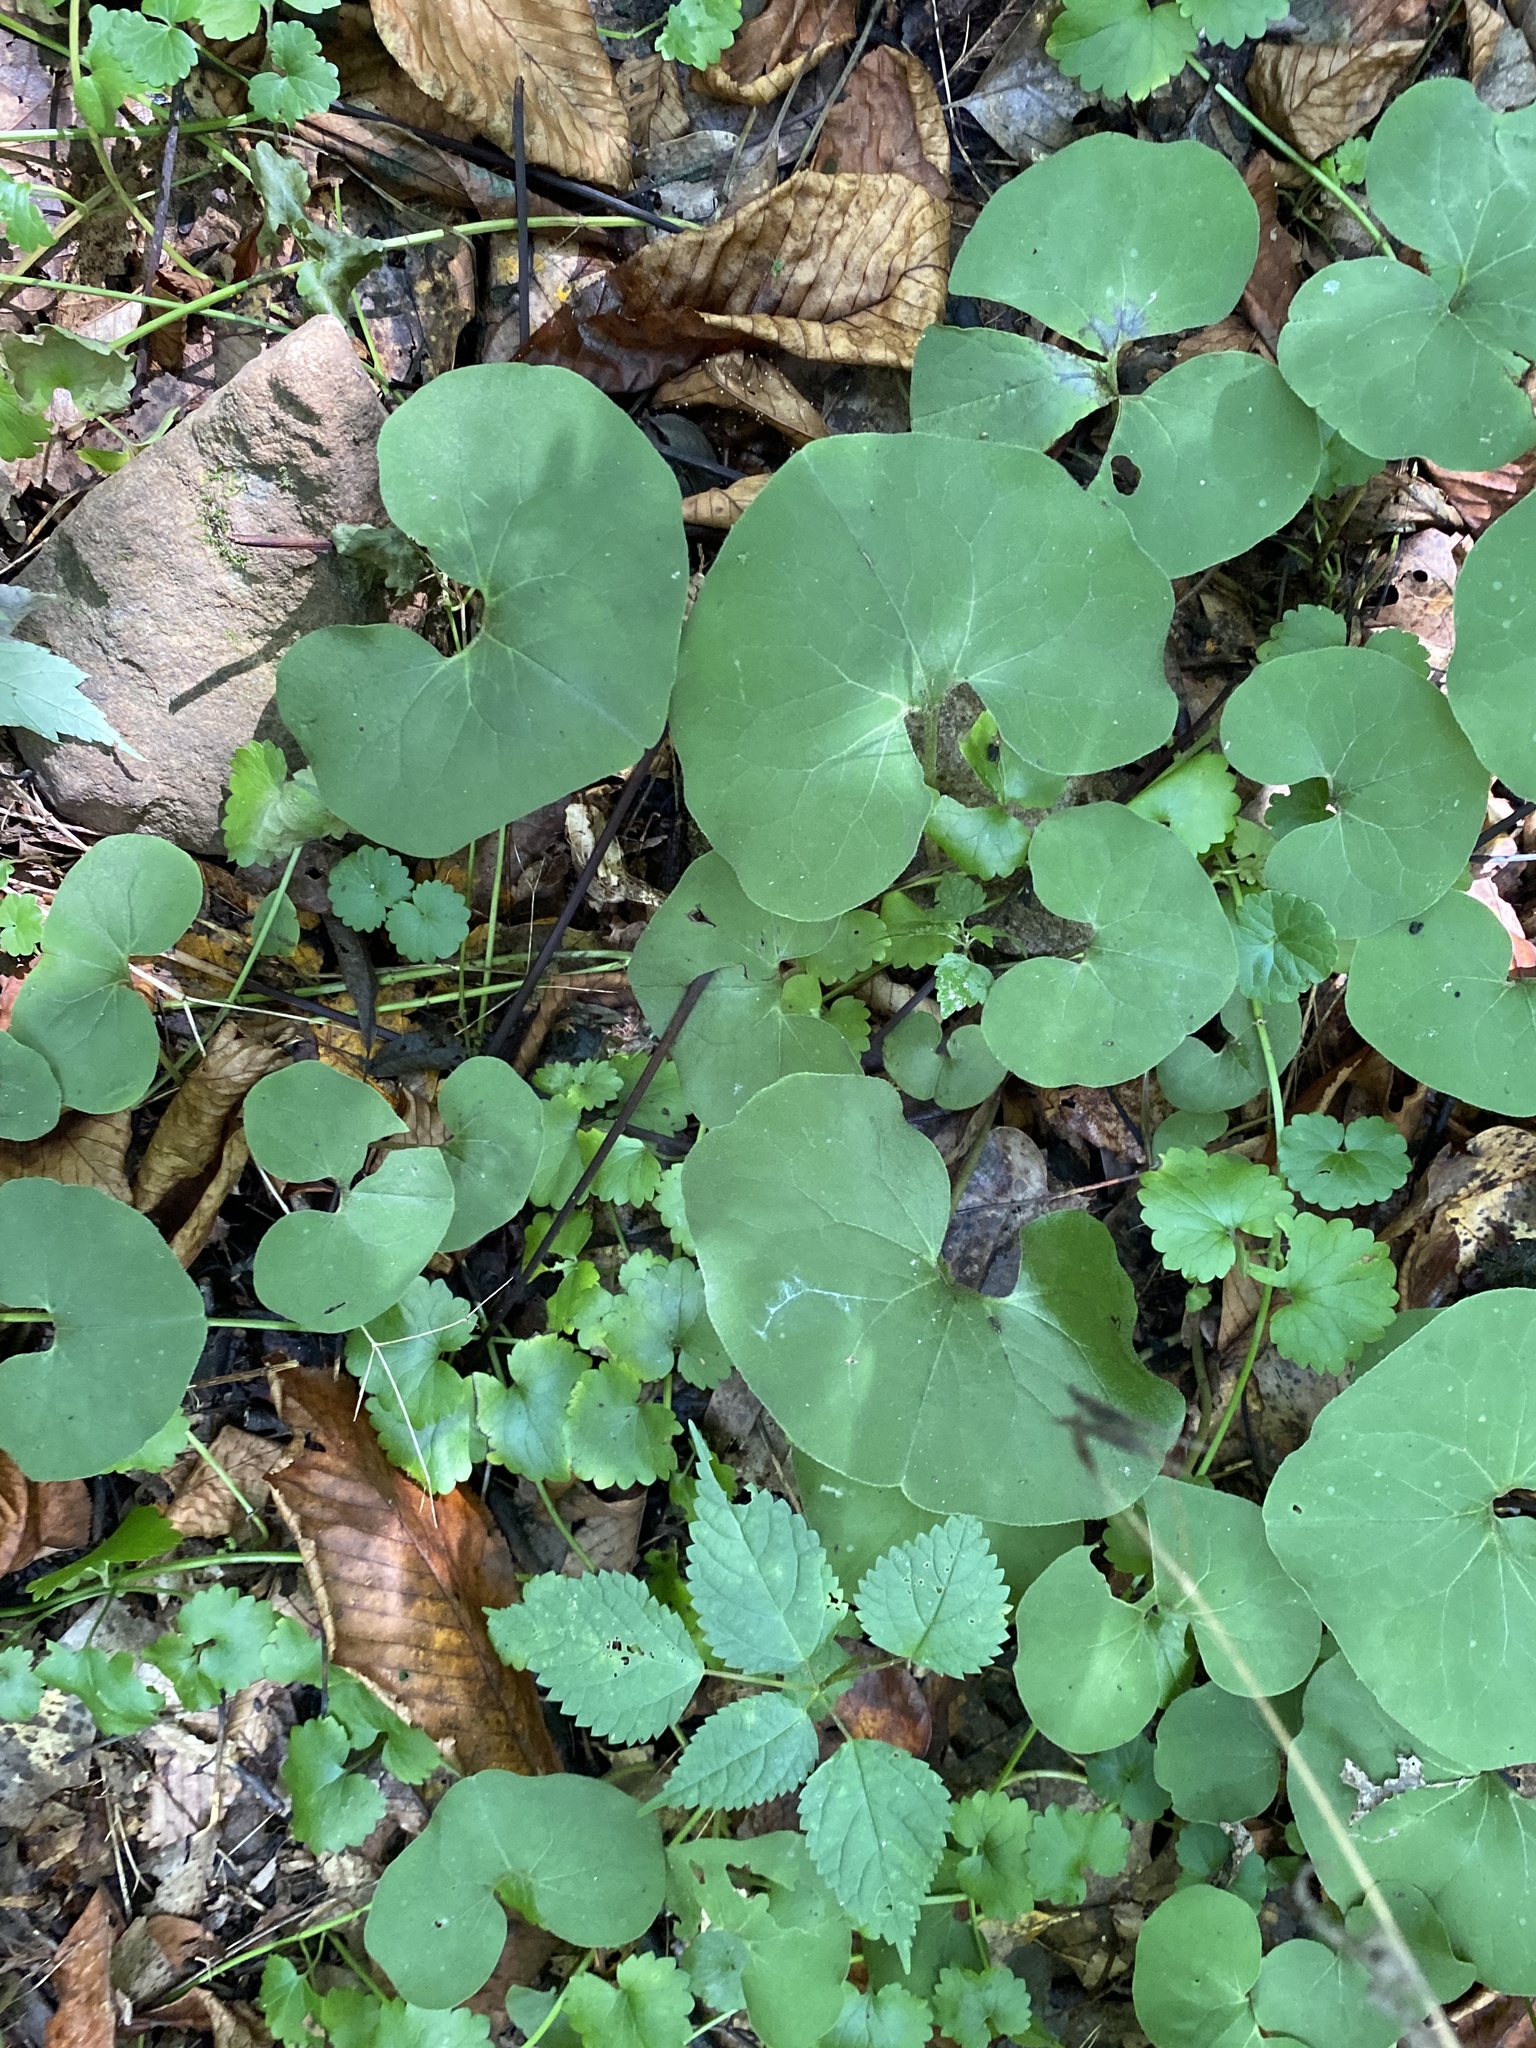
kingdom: Plantae
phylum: Tracheophyta
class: Magnoliopsida
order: Piperales
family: Aristolochiaceae
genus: Asarum
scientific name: Asarum canadense
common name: Wild ginger
